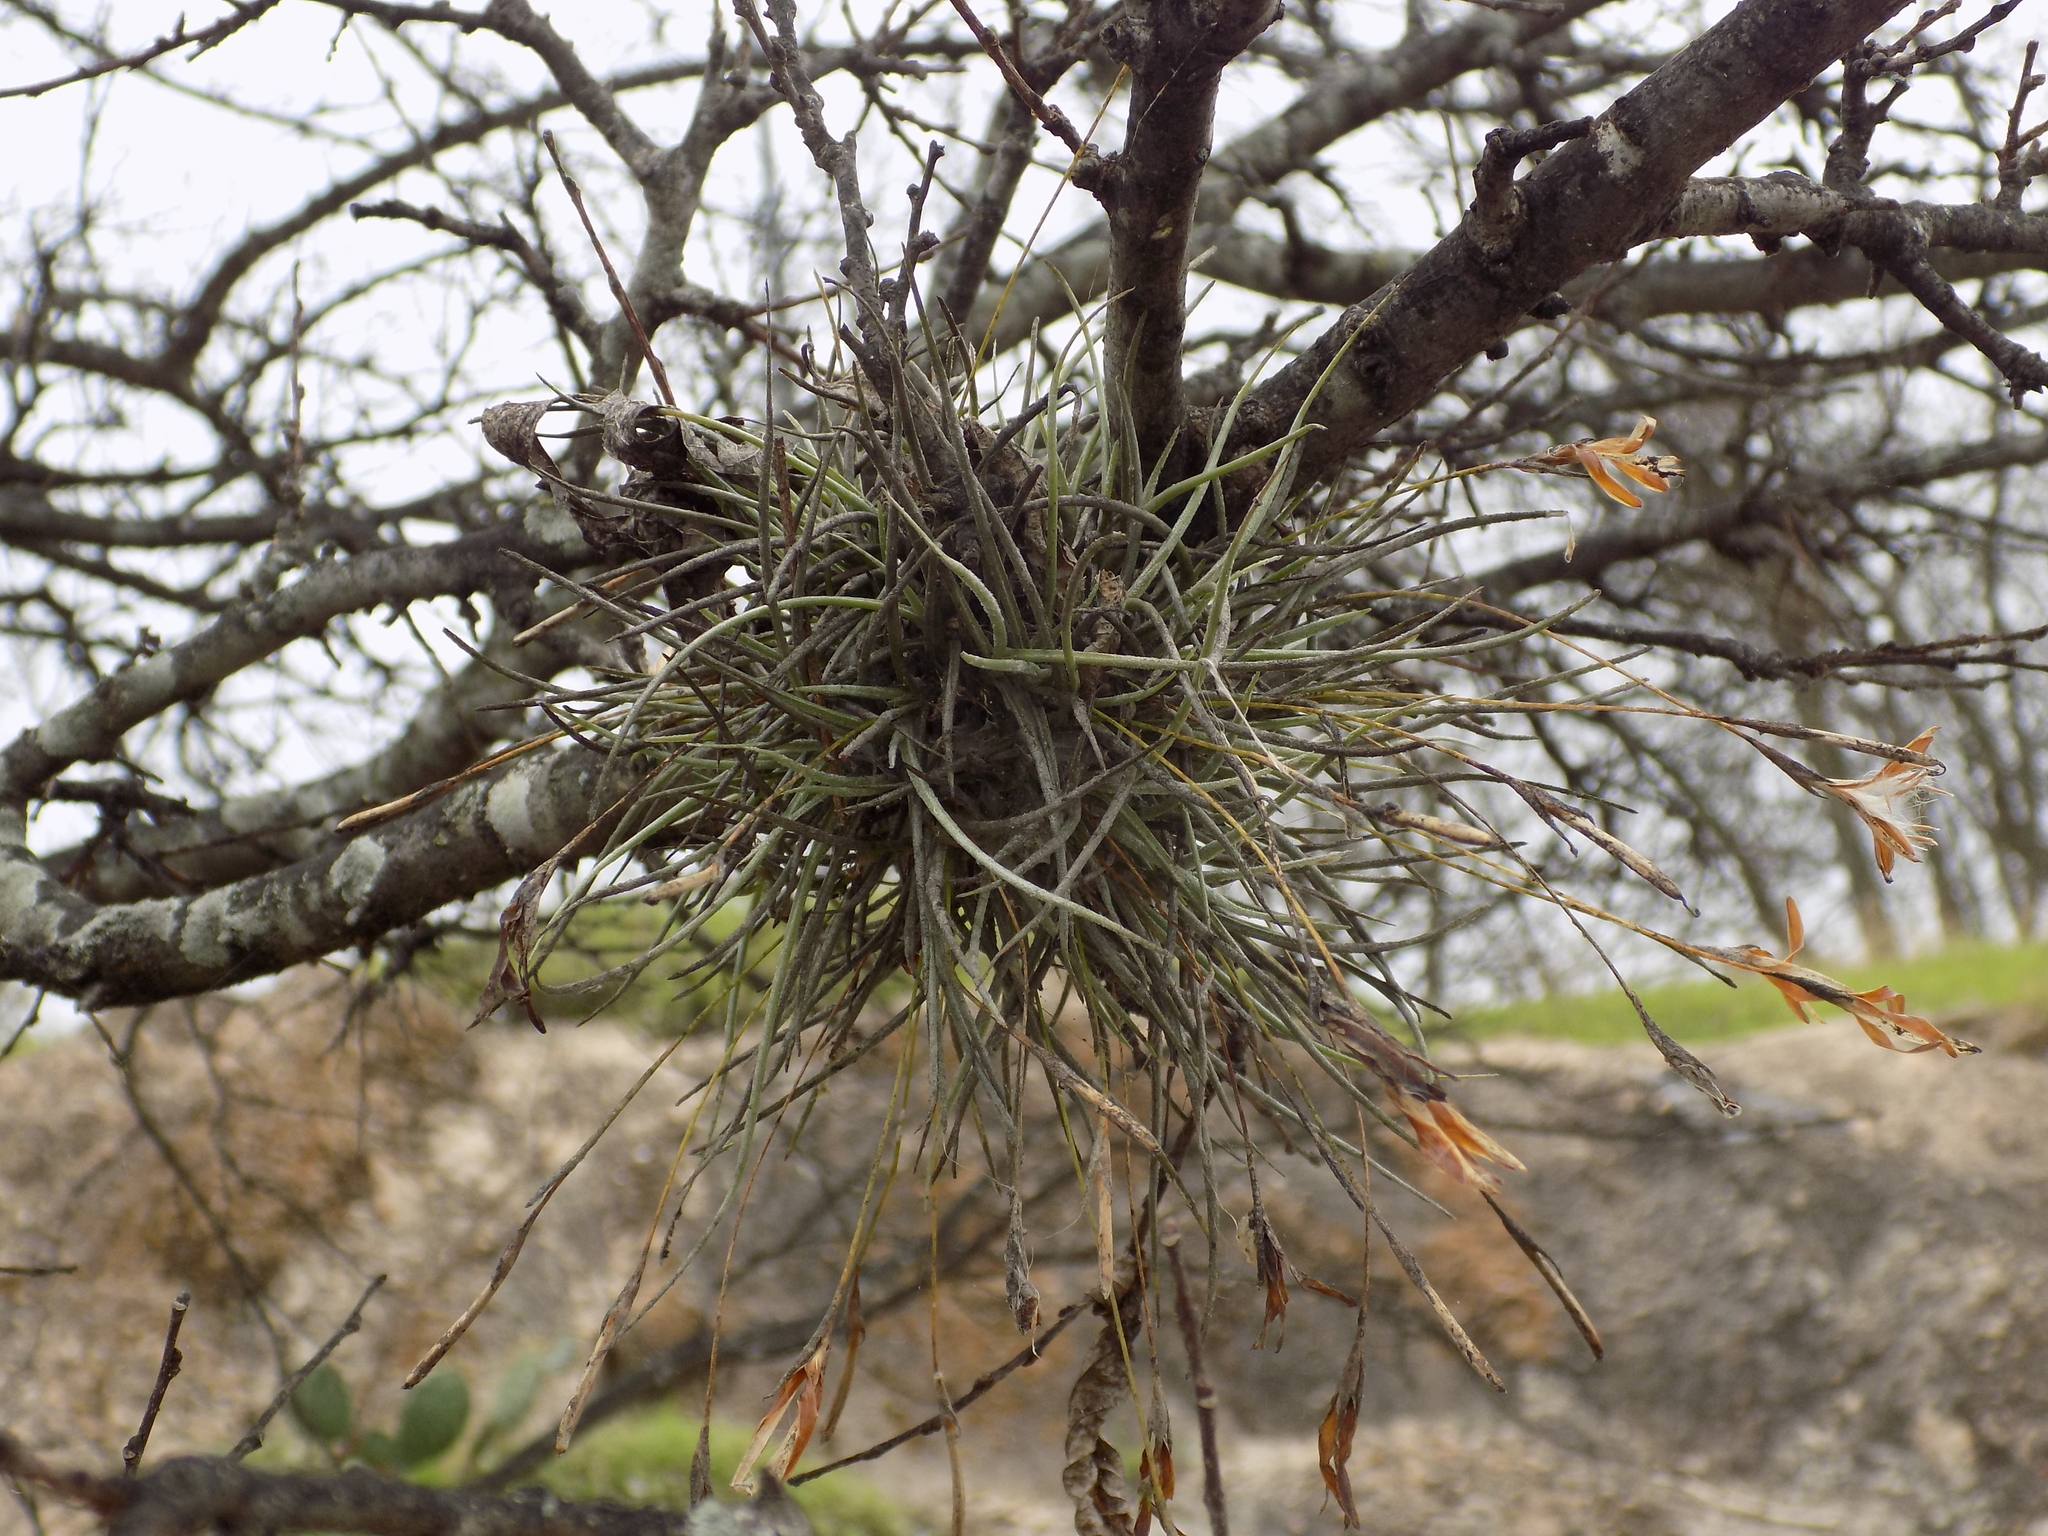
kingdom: Plantae
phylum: Tracheophyta
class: Liliopsida
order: Poales
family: Bromeliaceae
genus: Tillandsia
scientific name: Tillandsia recurvata
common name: Small ballmoss
